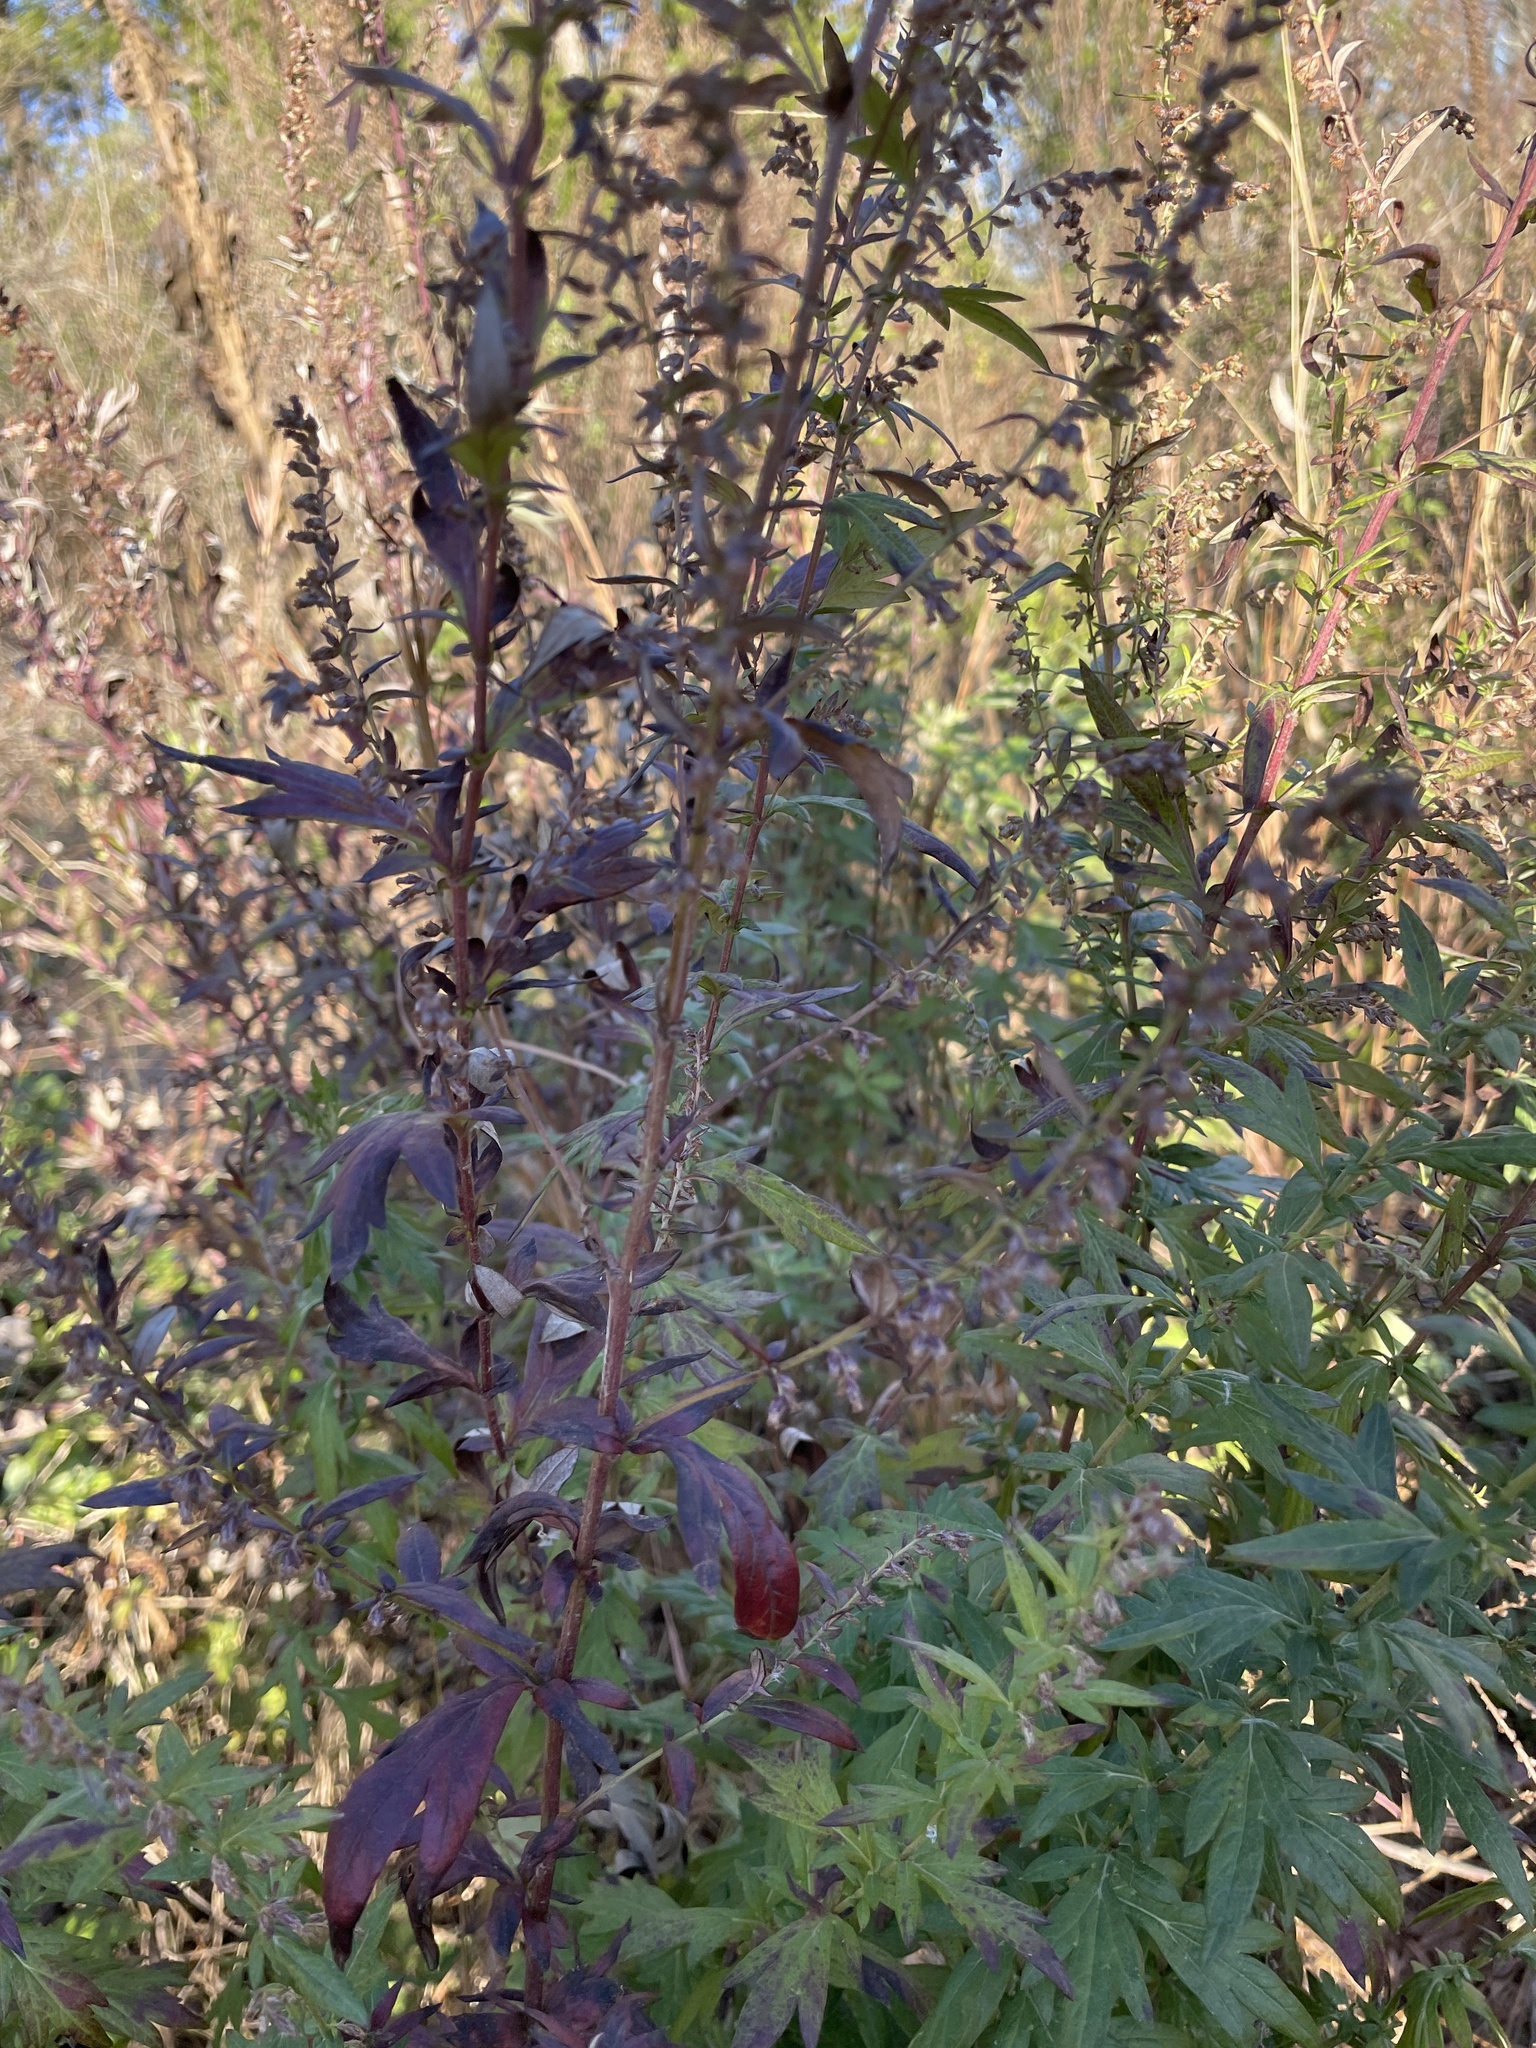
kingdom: Plantae
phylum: Tracheophyta
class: Magnoliopsida
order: Asterales
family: Asteraceae
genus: Artemisia
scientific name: Artemisia vulgaris
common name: Mugwort
